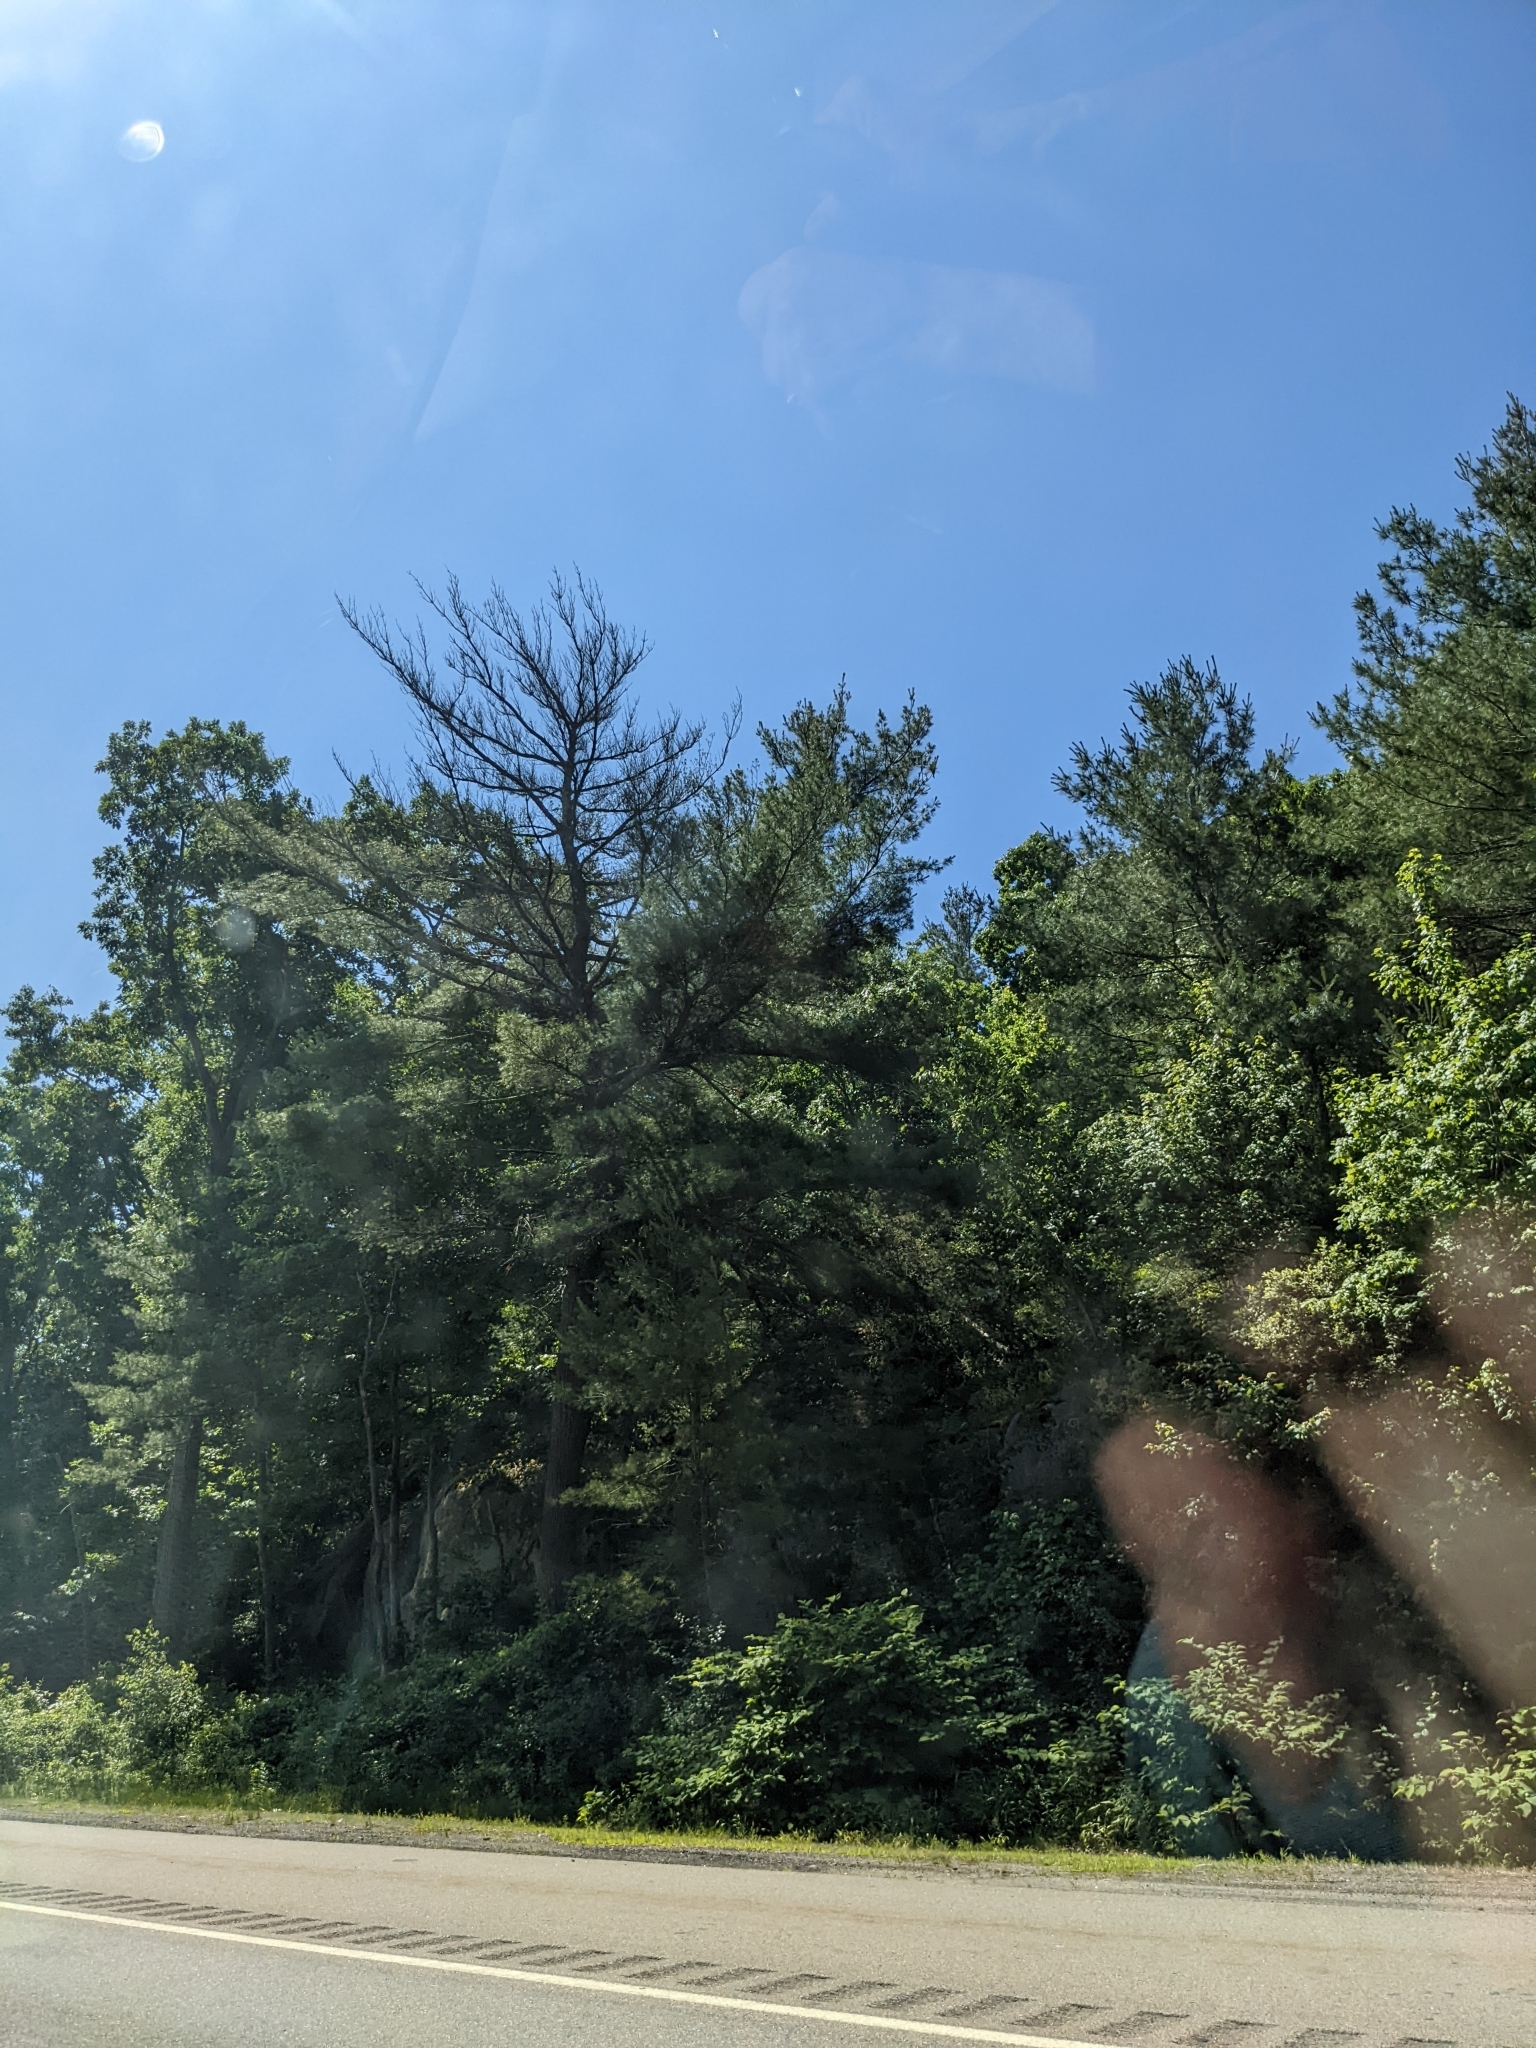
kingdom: Plantae
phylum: Tracheophyta
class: Pinopsida
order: Pinales
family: Pinaceae
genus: Pinus
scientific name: Pinus strobus
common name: Weymouth pine
